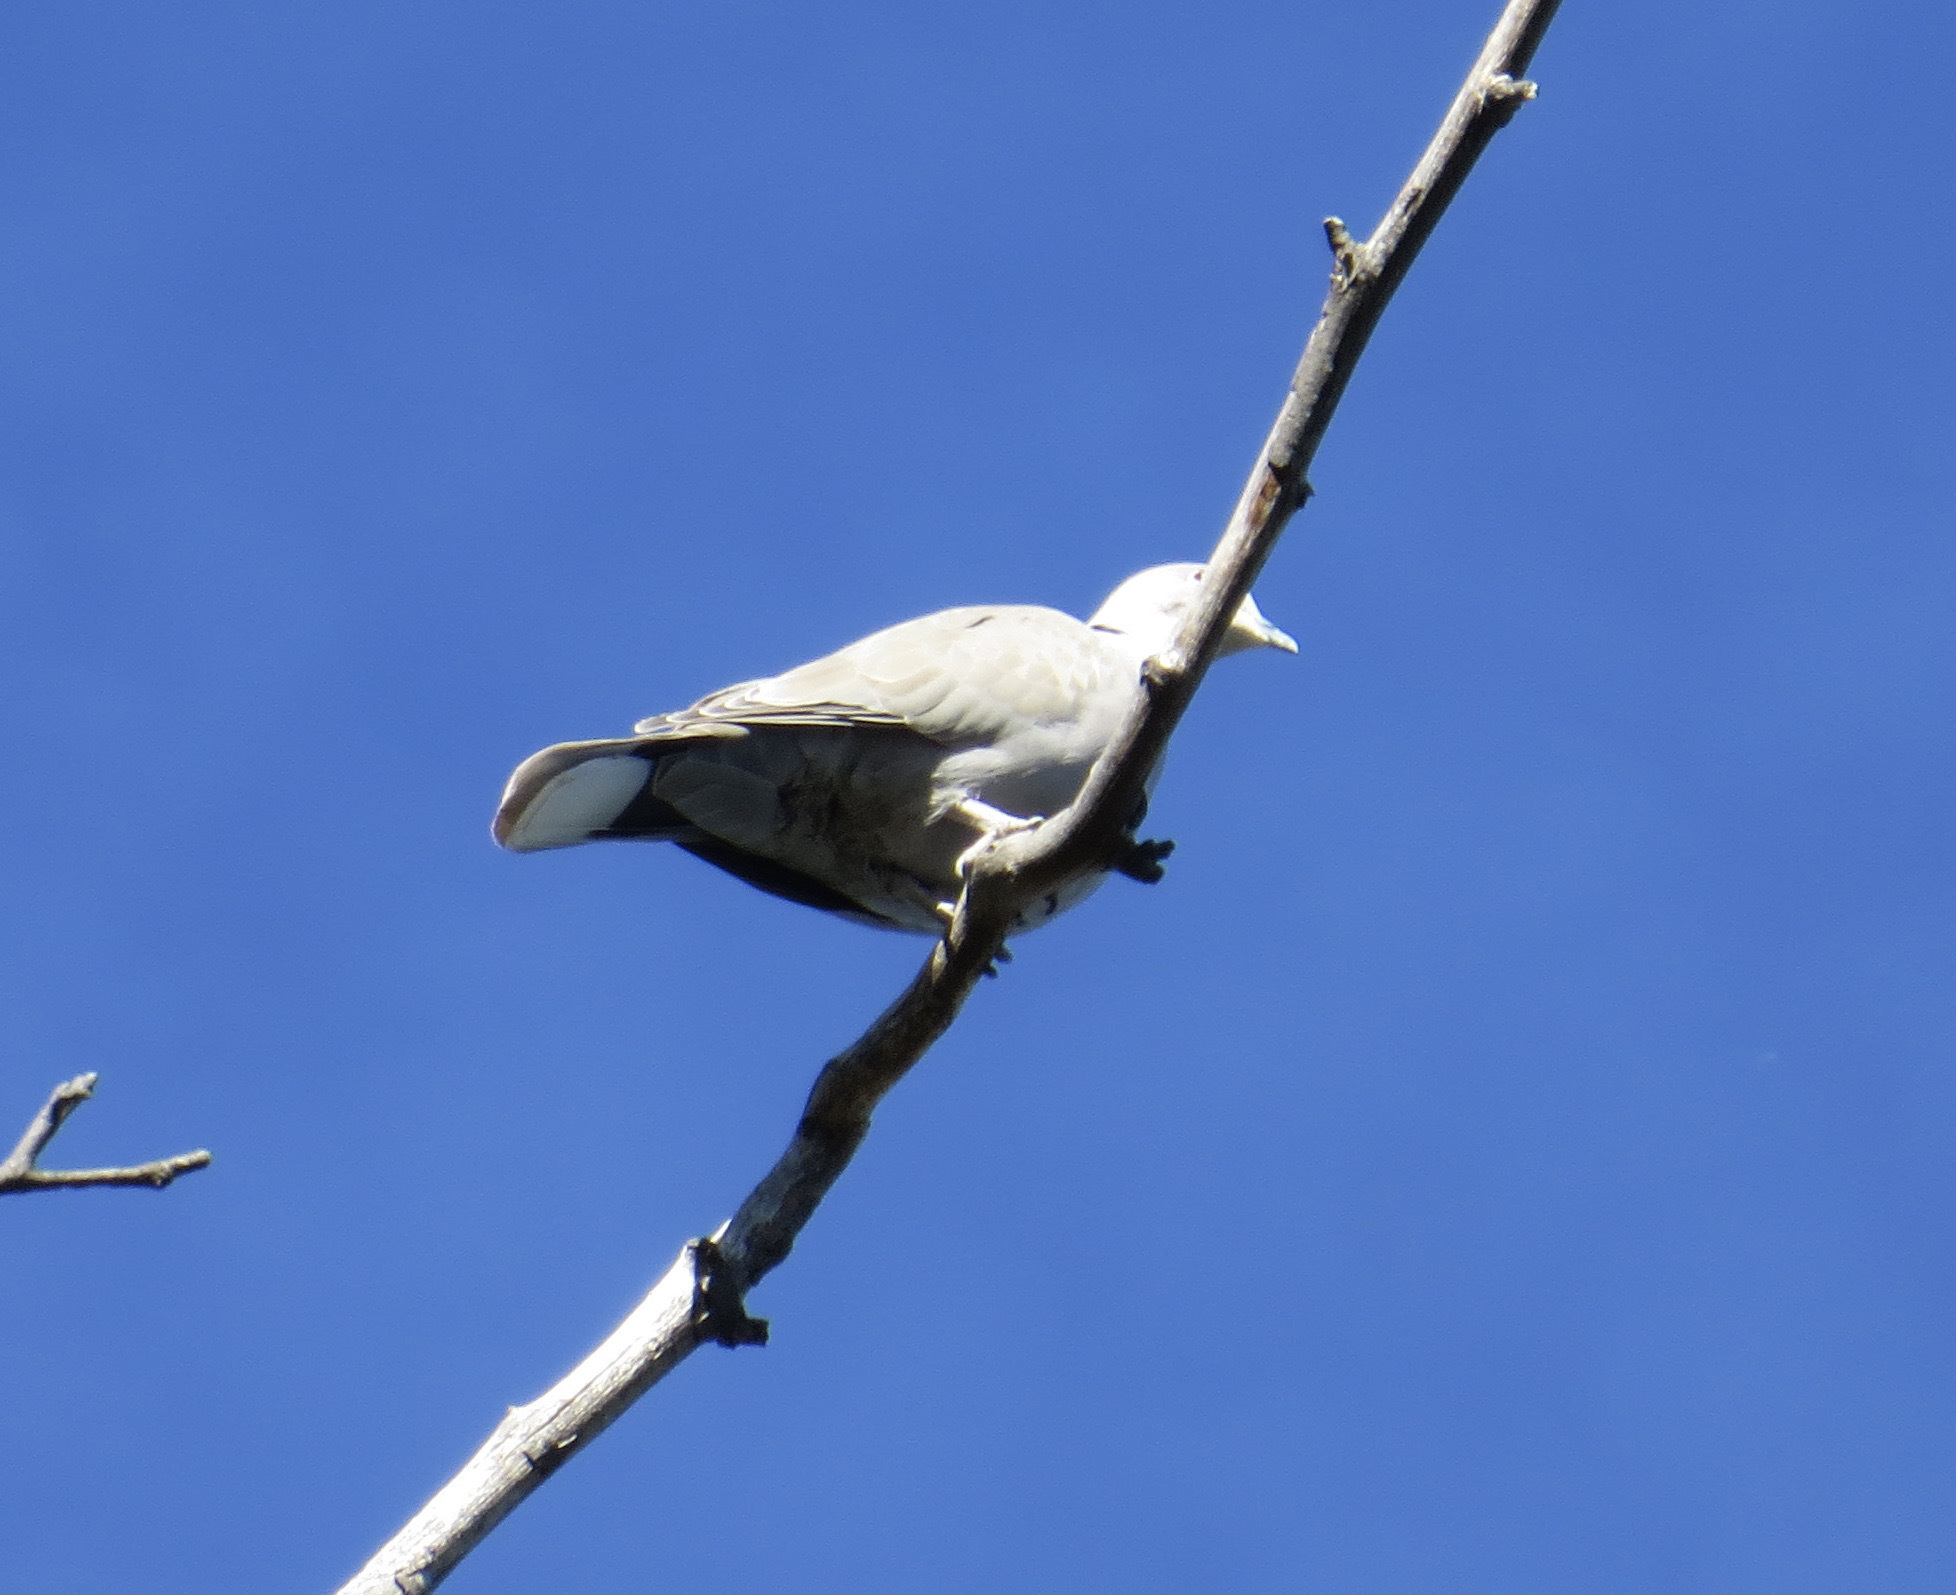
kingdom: Animalia
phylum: Chordata
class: Aves
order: Columbiformes
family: Columbidae
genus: Streptopelia
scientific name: Streptopelia decaocto
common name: Eurasian collared dove
